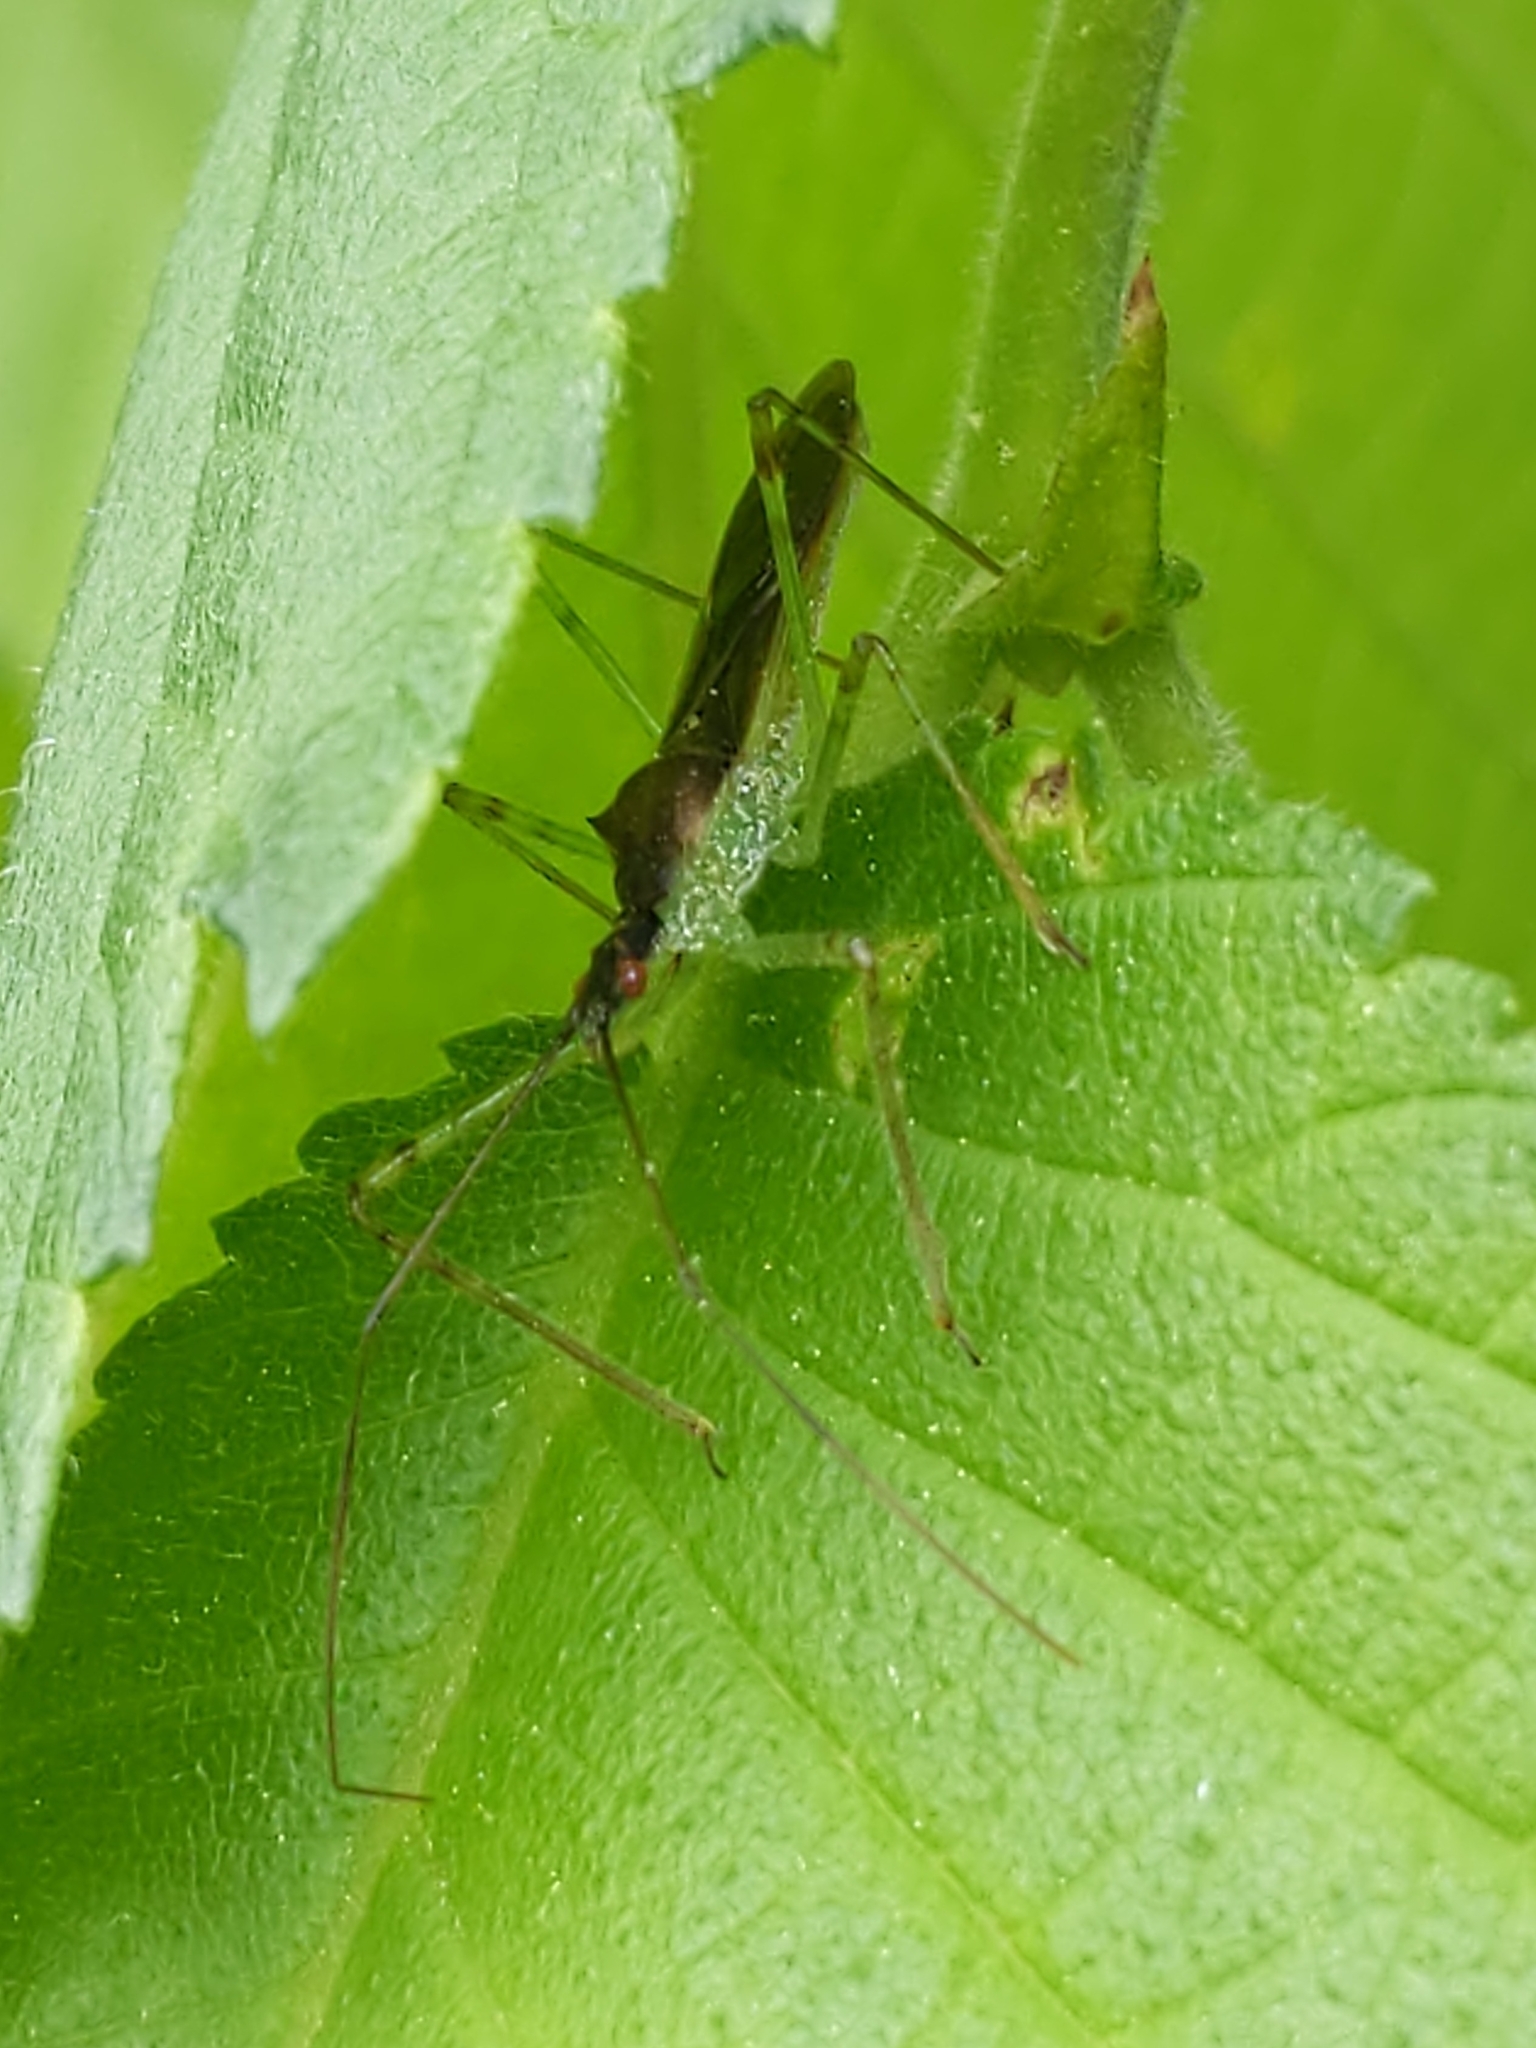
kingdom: Animalia
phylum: Arthropoda
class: Insecta
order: Hemiptera
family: Reduviidae
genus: Zelus
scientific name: Zelus luridus
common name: Pale green assassin bug
